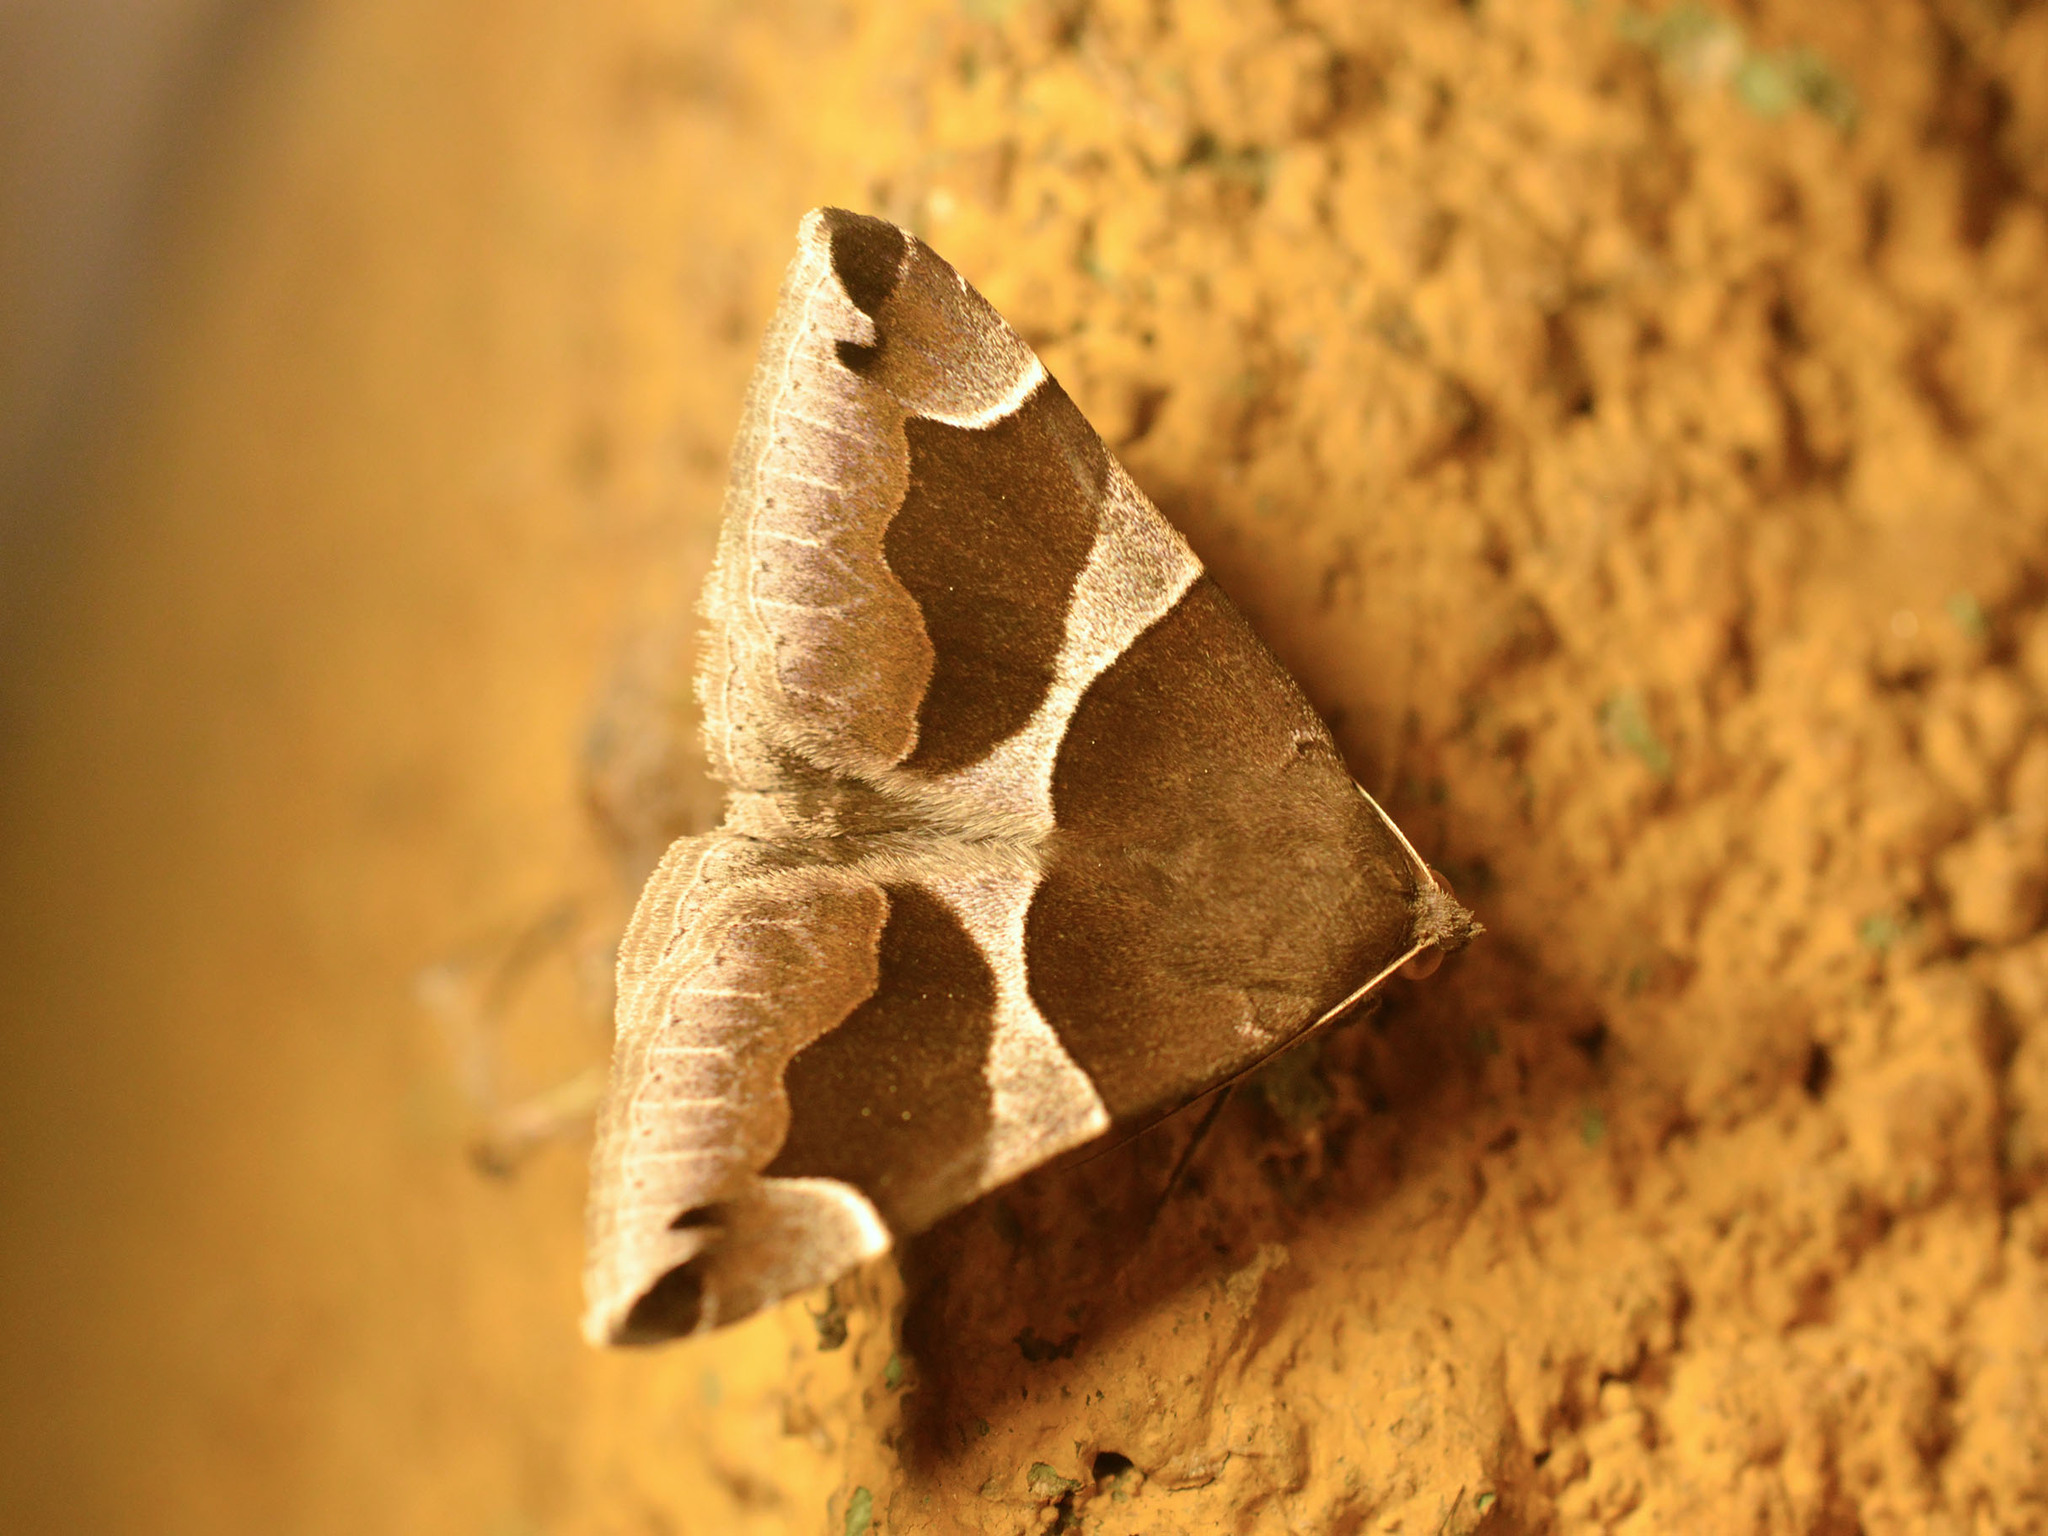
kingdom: Animalia
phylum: Arthropoda
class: Insecta
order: Lepidoptera
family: Erebidae
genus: Dysgonia
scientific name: Dysgonia algira
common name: Passenger
